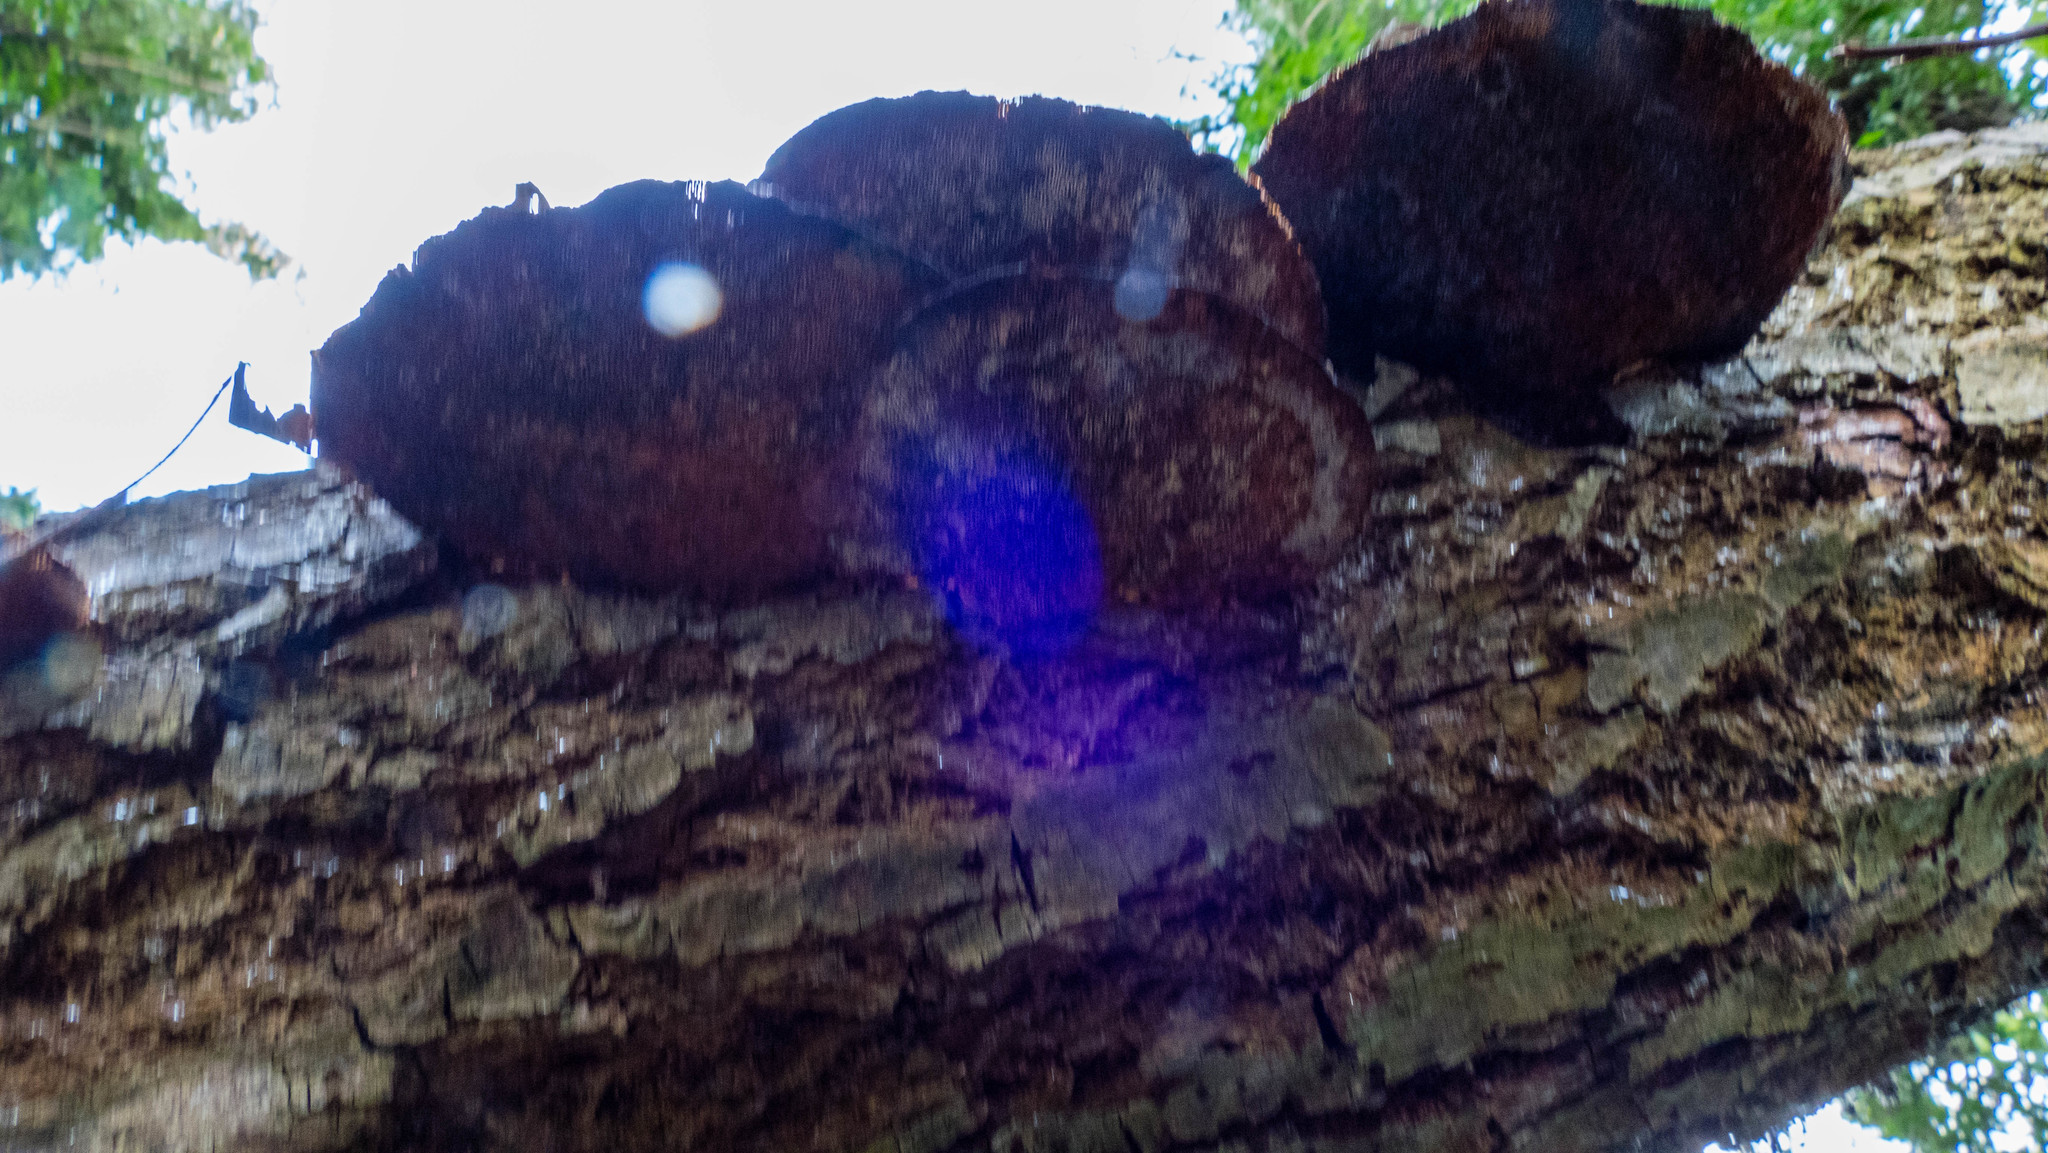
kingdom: Fungi
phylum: Basidiomycota
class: Agaricomycetes
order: Polyporales
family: Polyporaceae
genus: Daedaleopsis
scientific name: Daedaleopsis confragosa
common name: Blushing bracket
